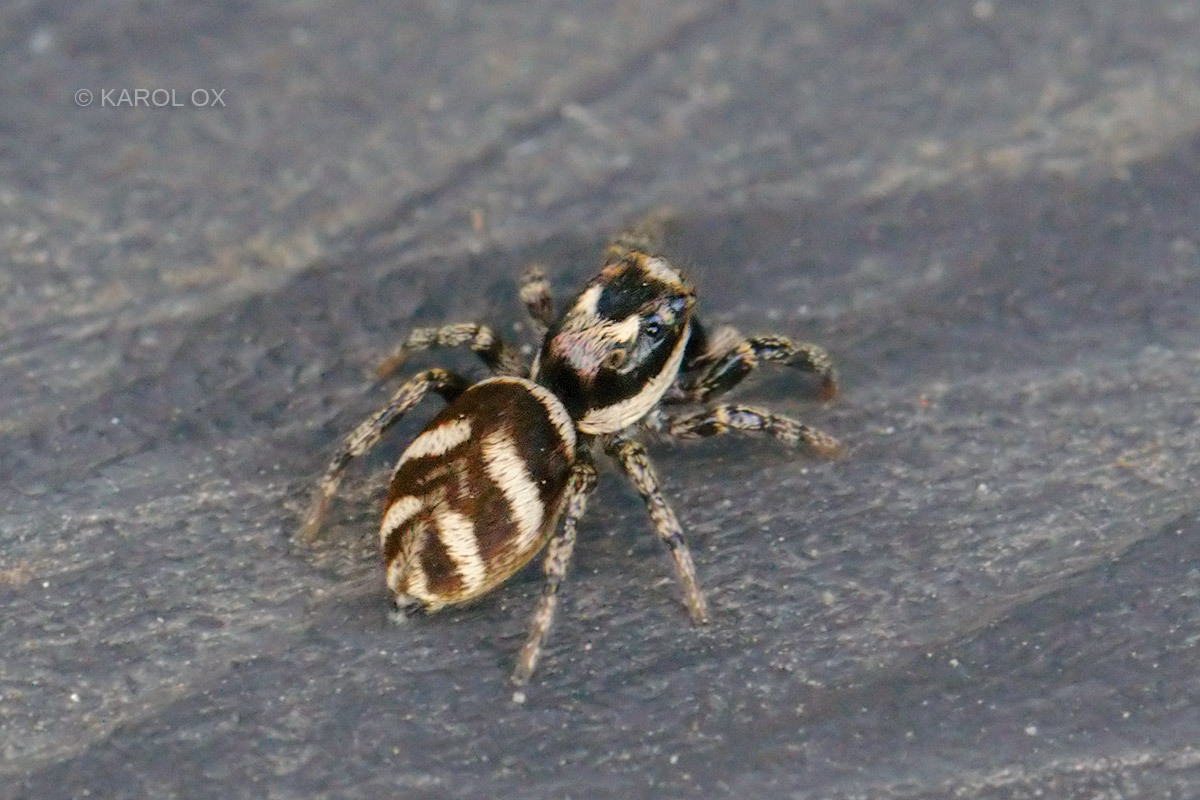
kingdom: Animalia
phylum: Arthropoda
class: Arachnida
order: Araneae
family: Salticidae
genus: Salticus
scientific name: Salticus scenicus
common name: Zebra jumper
